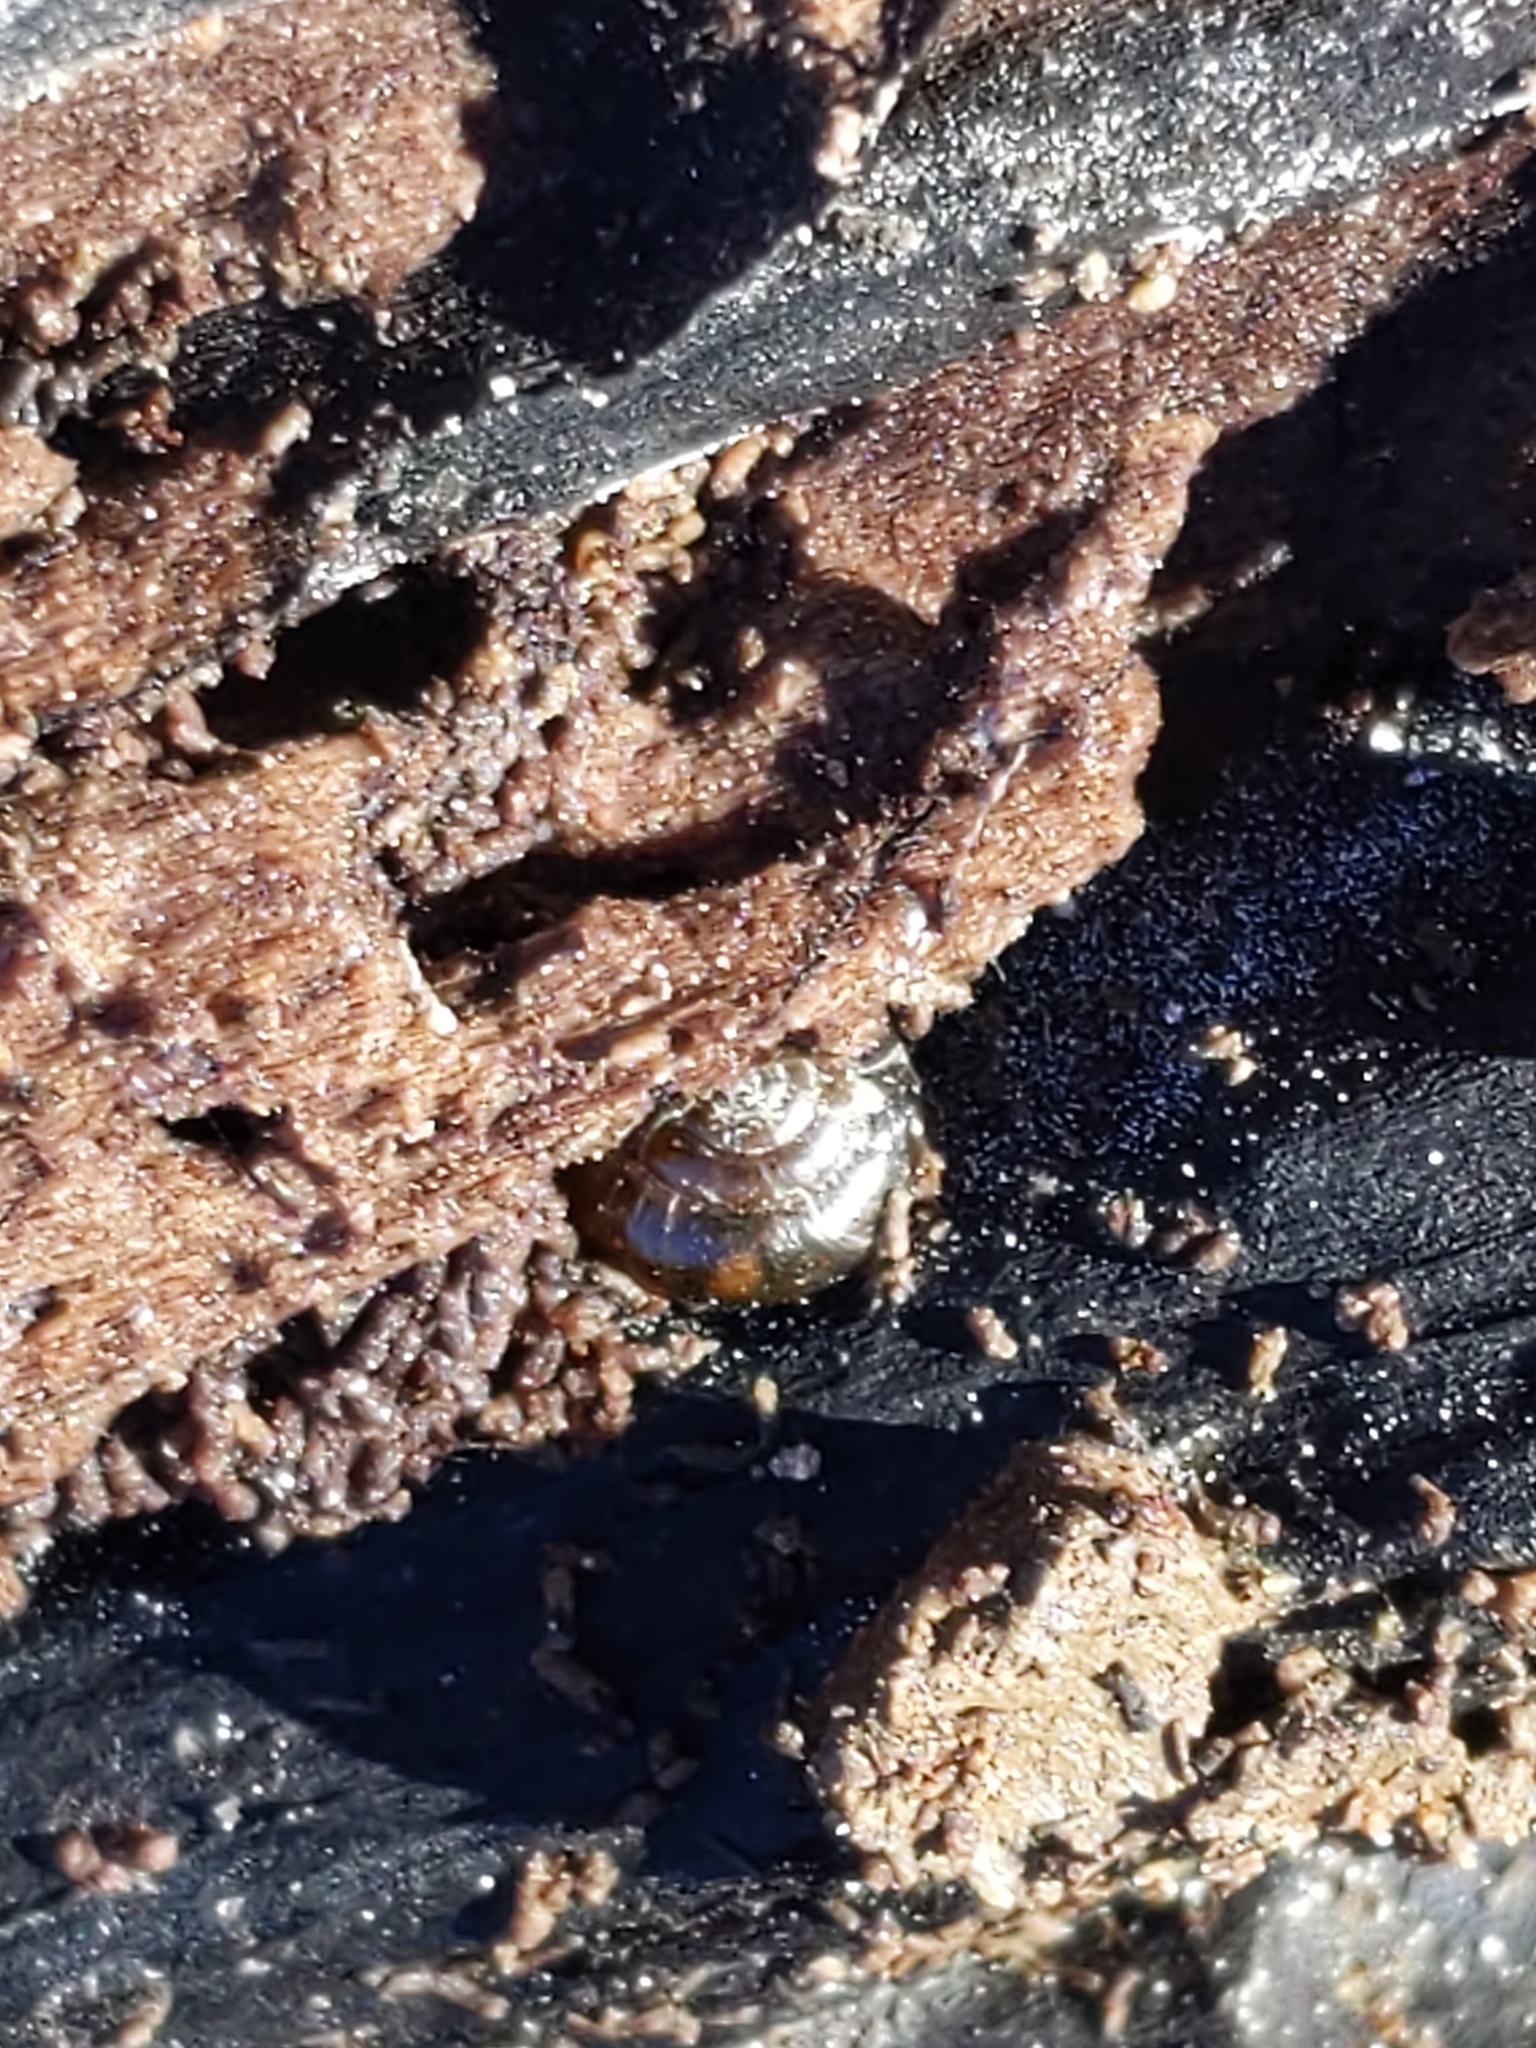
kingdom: Animalia
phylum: Mollusca
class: Gastropoda
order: Stylommatophora
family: Gastrodontidae
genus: Zonitoides
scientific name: Zonitoides nitidus
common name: Shiny glass snail
